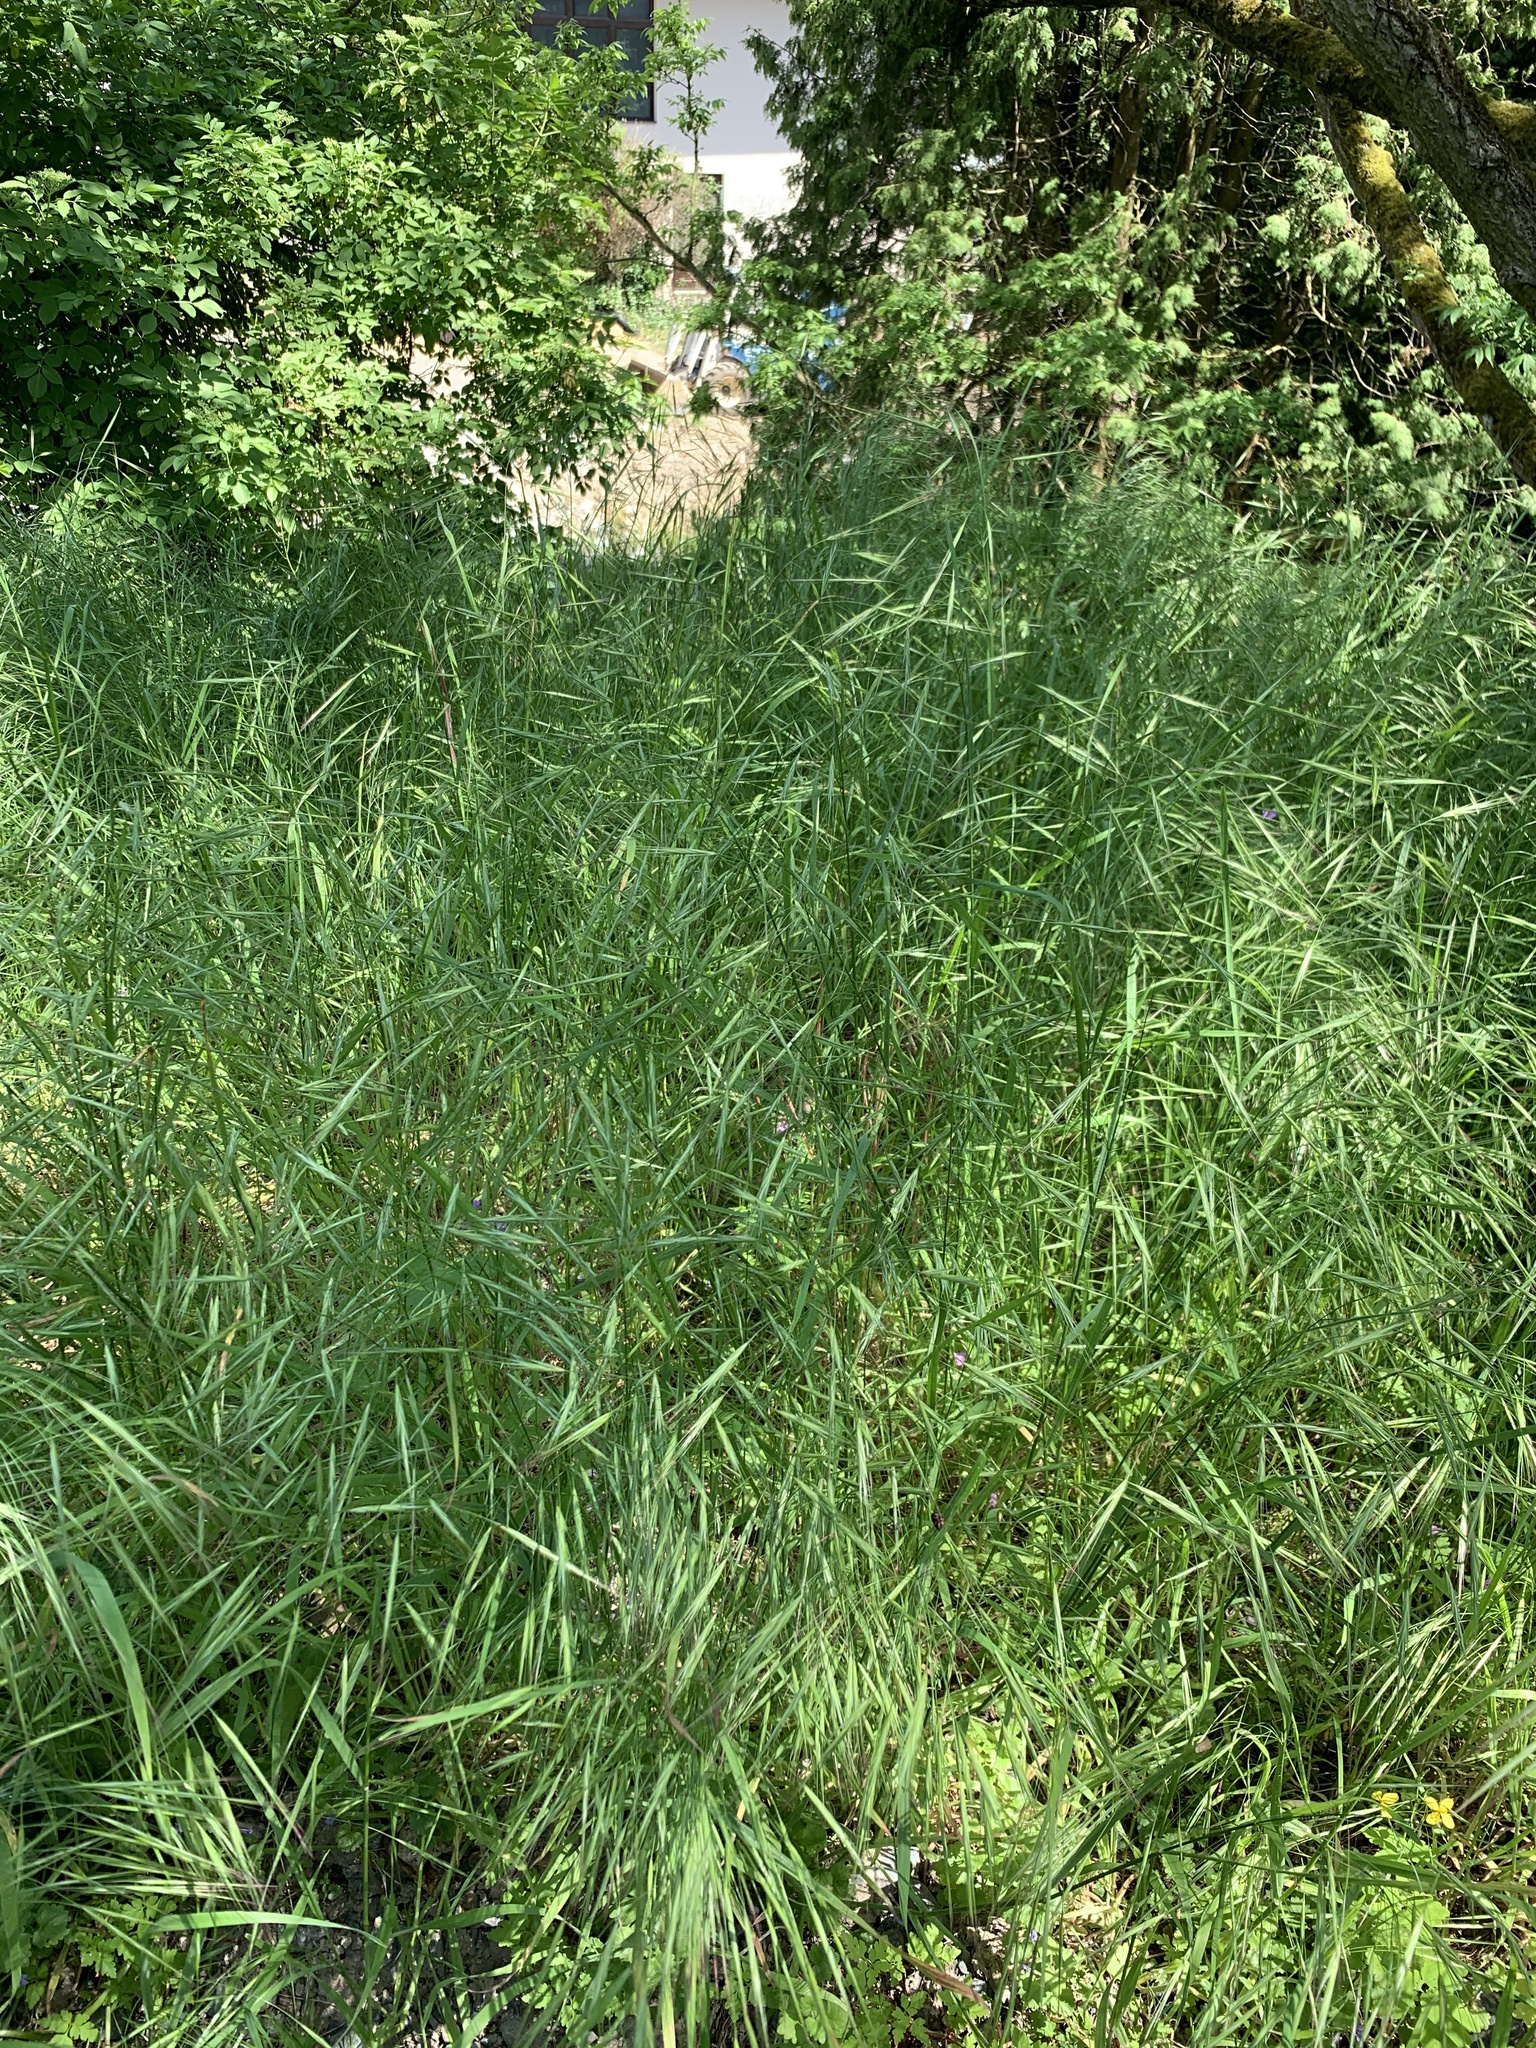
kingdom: Plantae
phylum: Tracheophyta
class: Liliopsida
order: Poales
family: Poaceae
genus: Bromus
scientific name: Bromus sterilis
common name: Poverty brome
